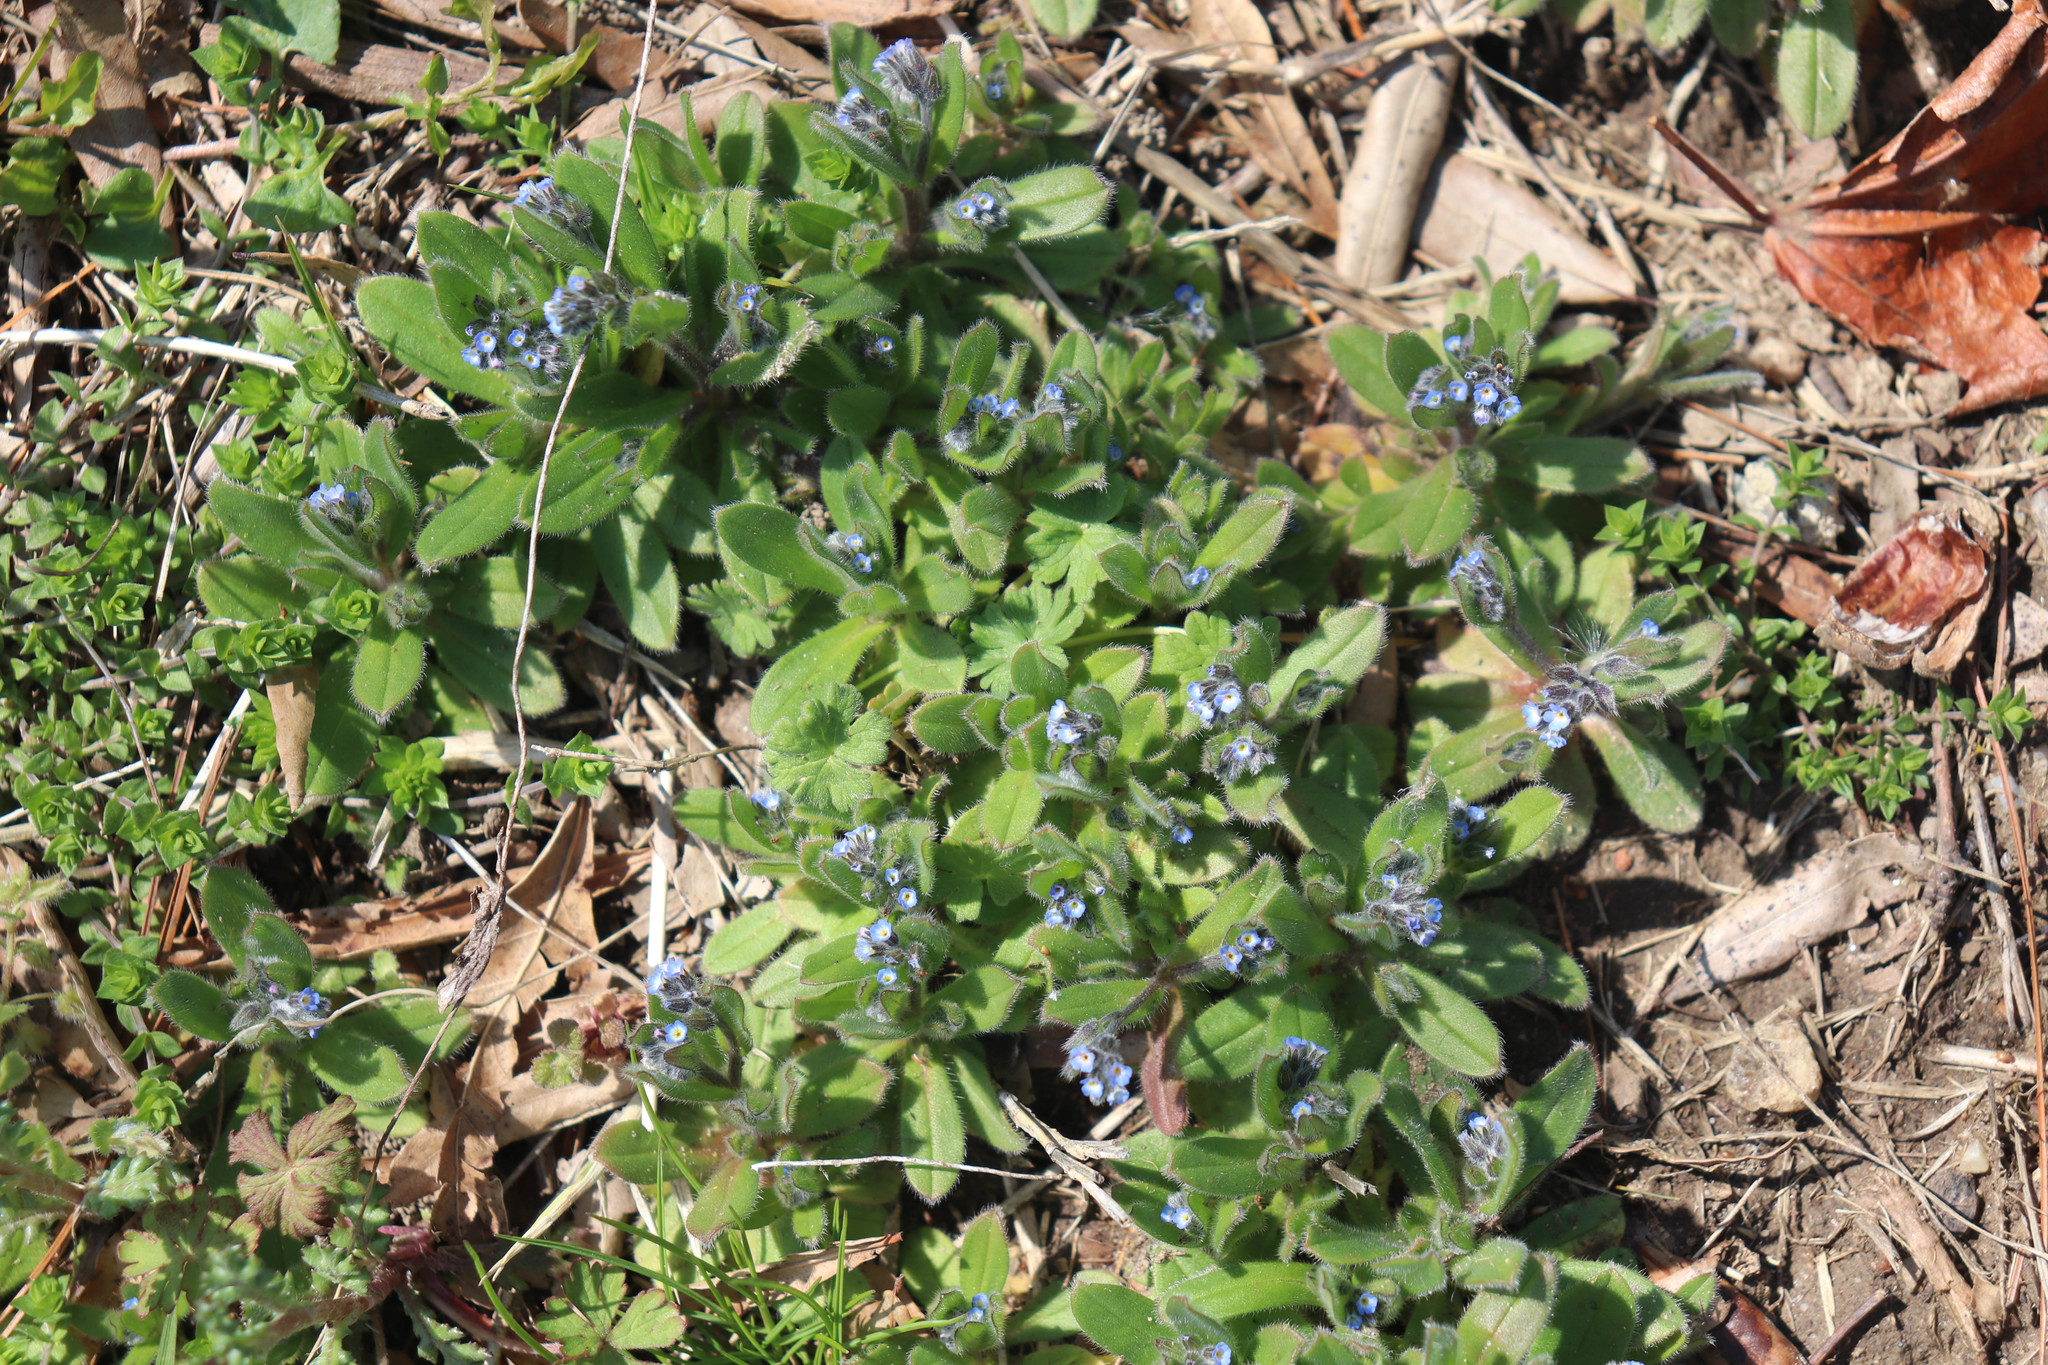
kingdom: Plantae
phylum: Tracheophyta
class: Magnoliopsida
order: Boraginales
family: Boraginaceae
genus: Myosotis
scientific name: Myosotis ramosissima
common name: Early forget-me-not
